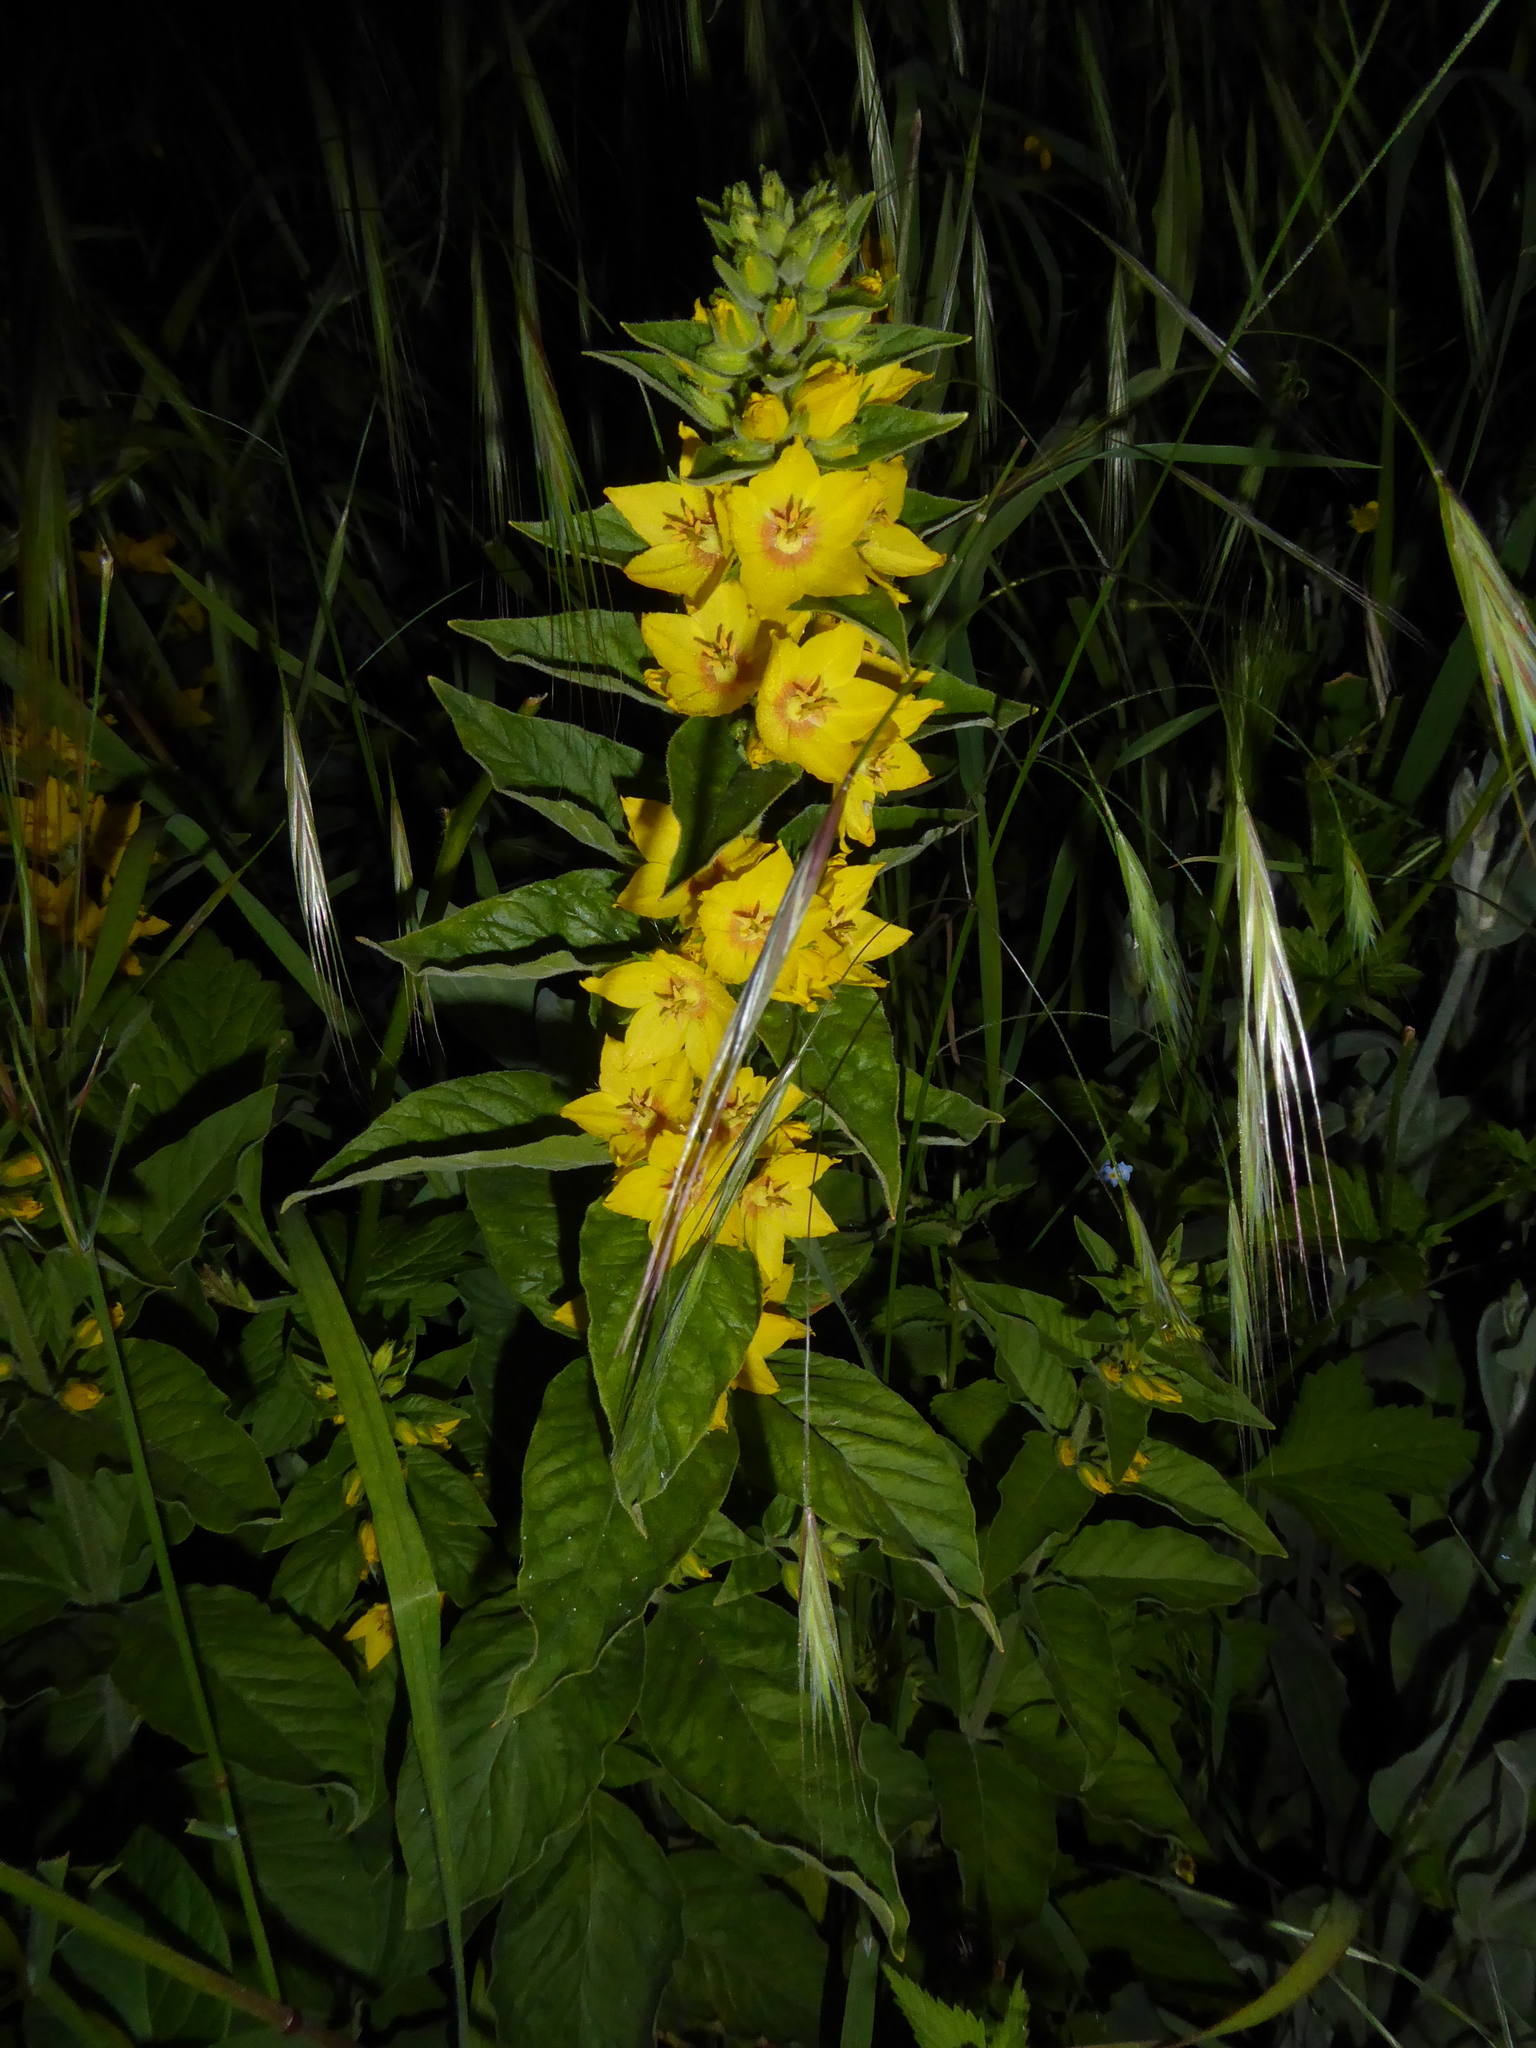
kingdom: Plantae
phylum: Tracheophyta
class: Magnoliopsida
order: Ericales
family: Primulaceae
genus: Lysimachia
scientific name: Lysimachia punctata
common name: Dotted loosestrife
